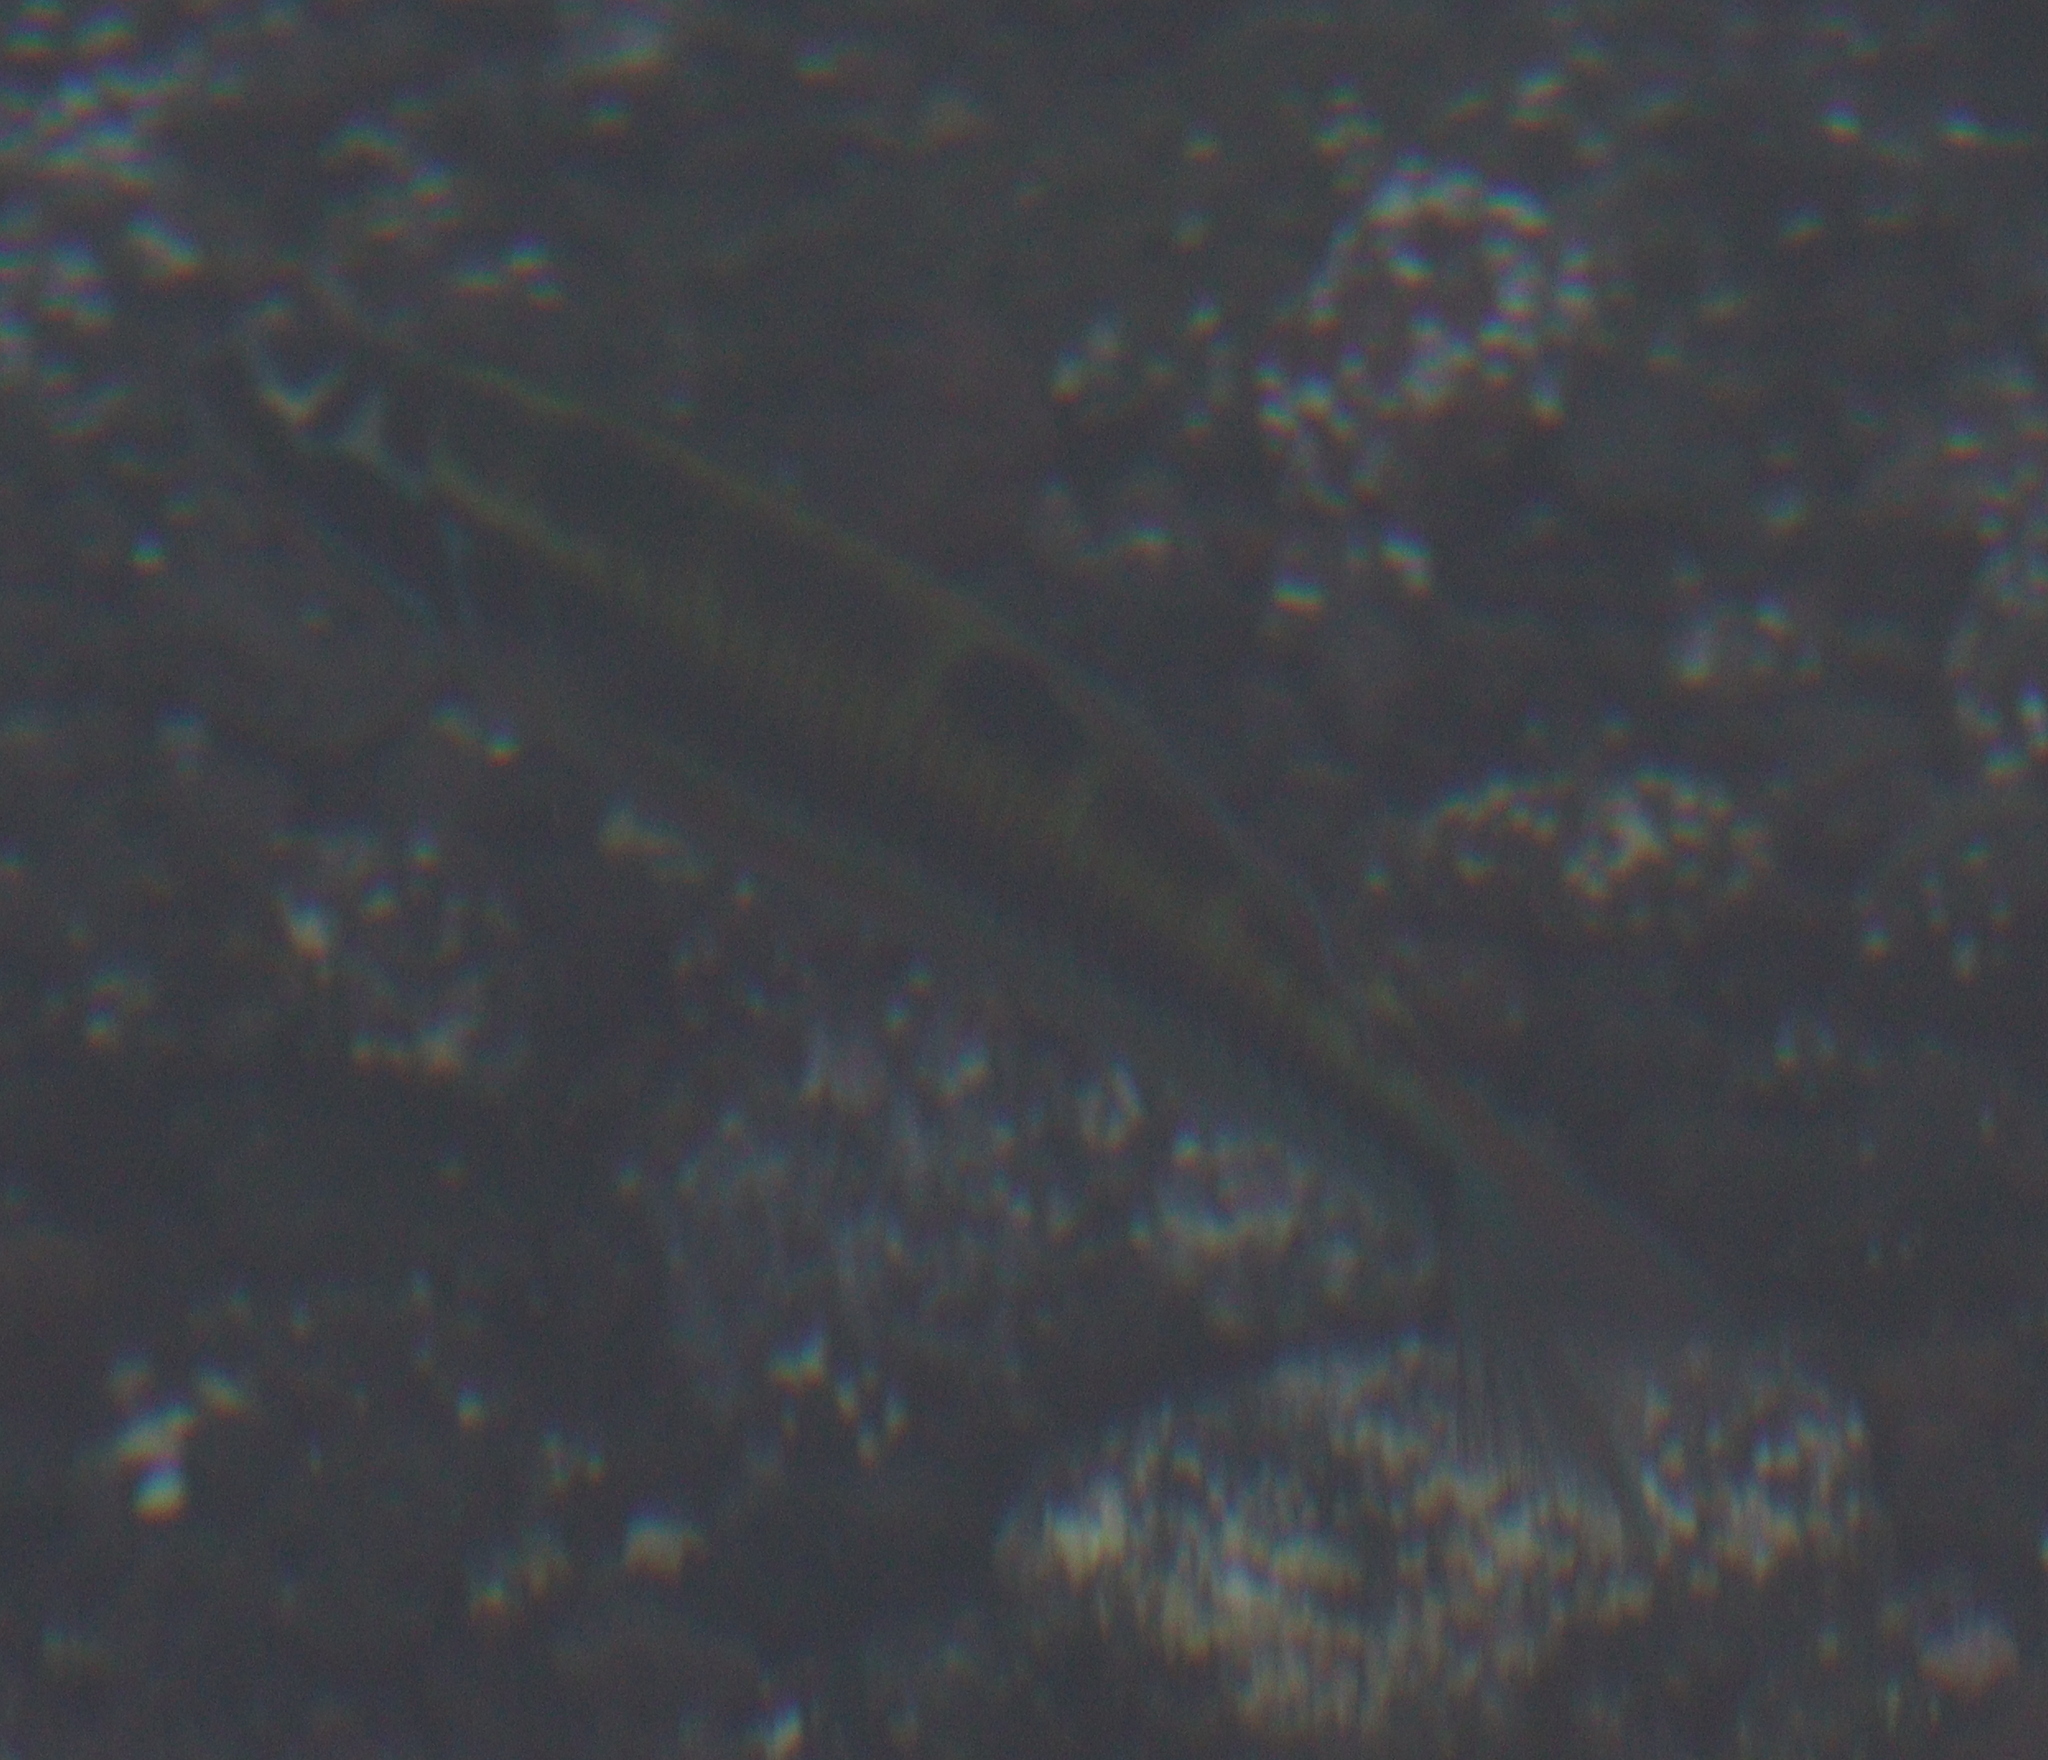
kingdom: Animalia
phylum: Chordata
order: Perciformes
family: Labridae
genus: Thalassoma
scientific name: Thalassoma pavo
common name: Ornate wrasse
